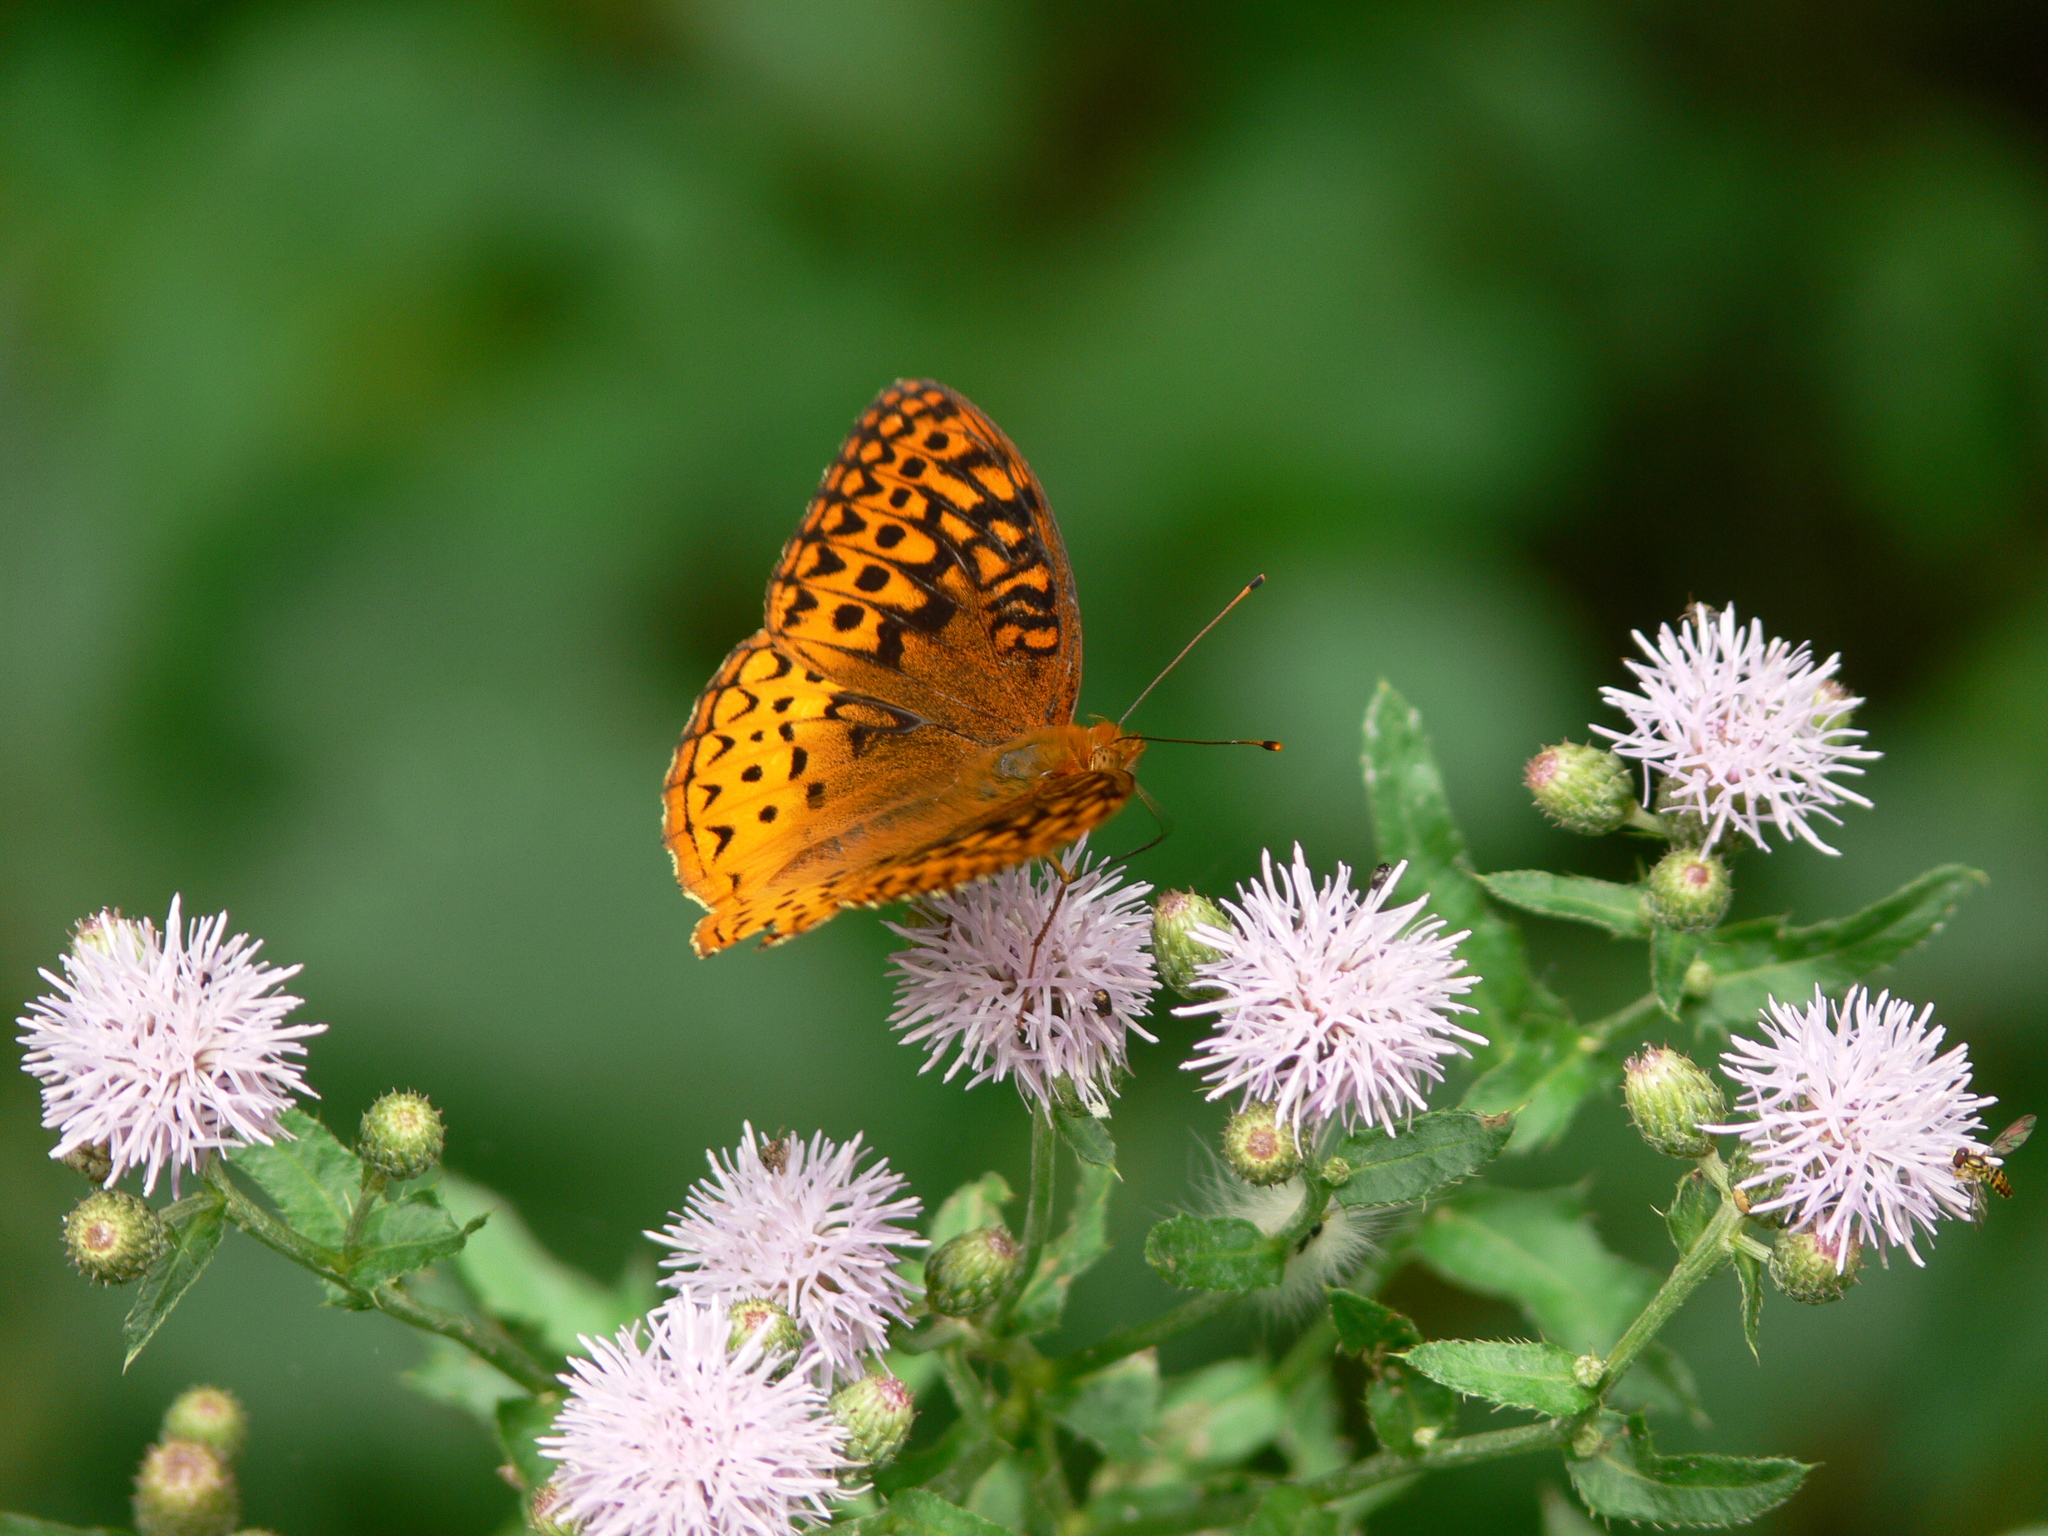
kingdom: Animalia
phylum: Arthropoda
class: Insecta
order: Lepidoptera
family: Nymphalidae
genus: Speyeria
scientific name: Speyeria cybele
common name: Great spangled fritillary
